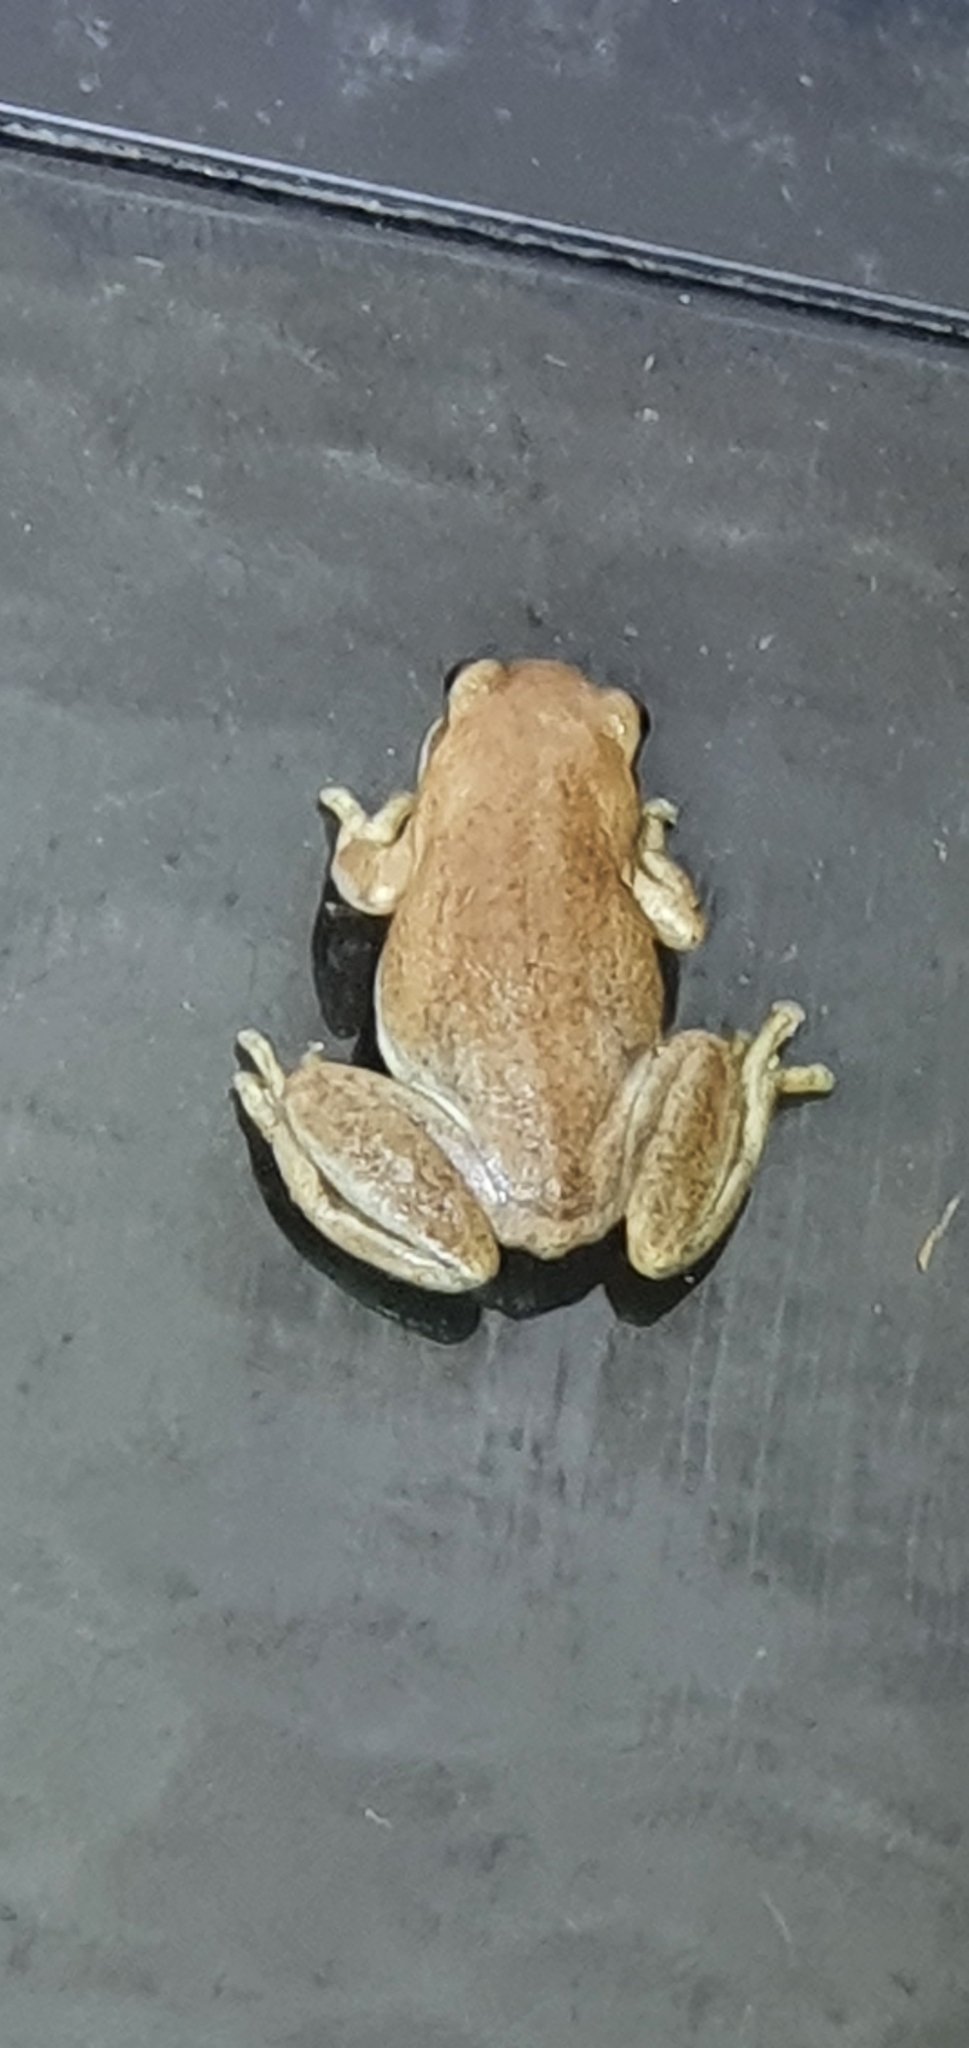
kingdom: Animalia
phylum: Chordata
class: Amphibia
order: Anura
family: Pelodryadidae
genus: Litoria
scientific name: Litoria rubella
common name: Desert tree frog
